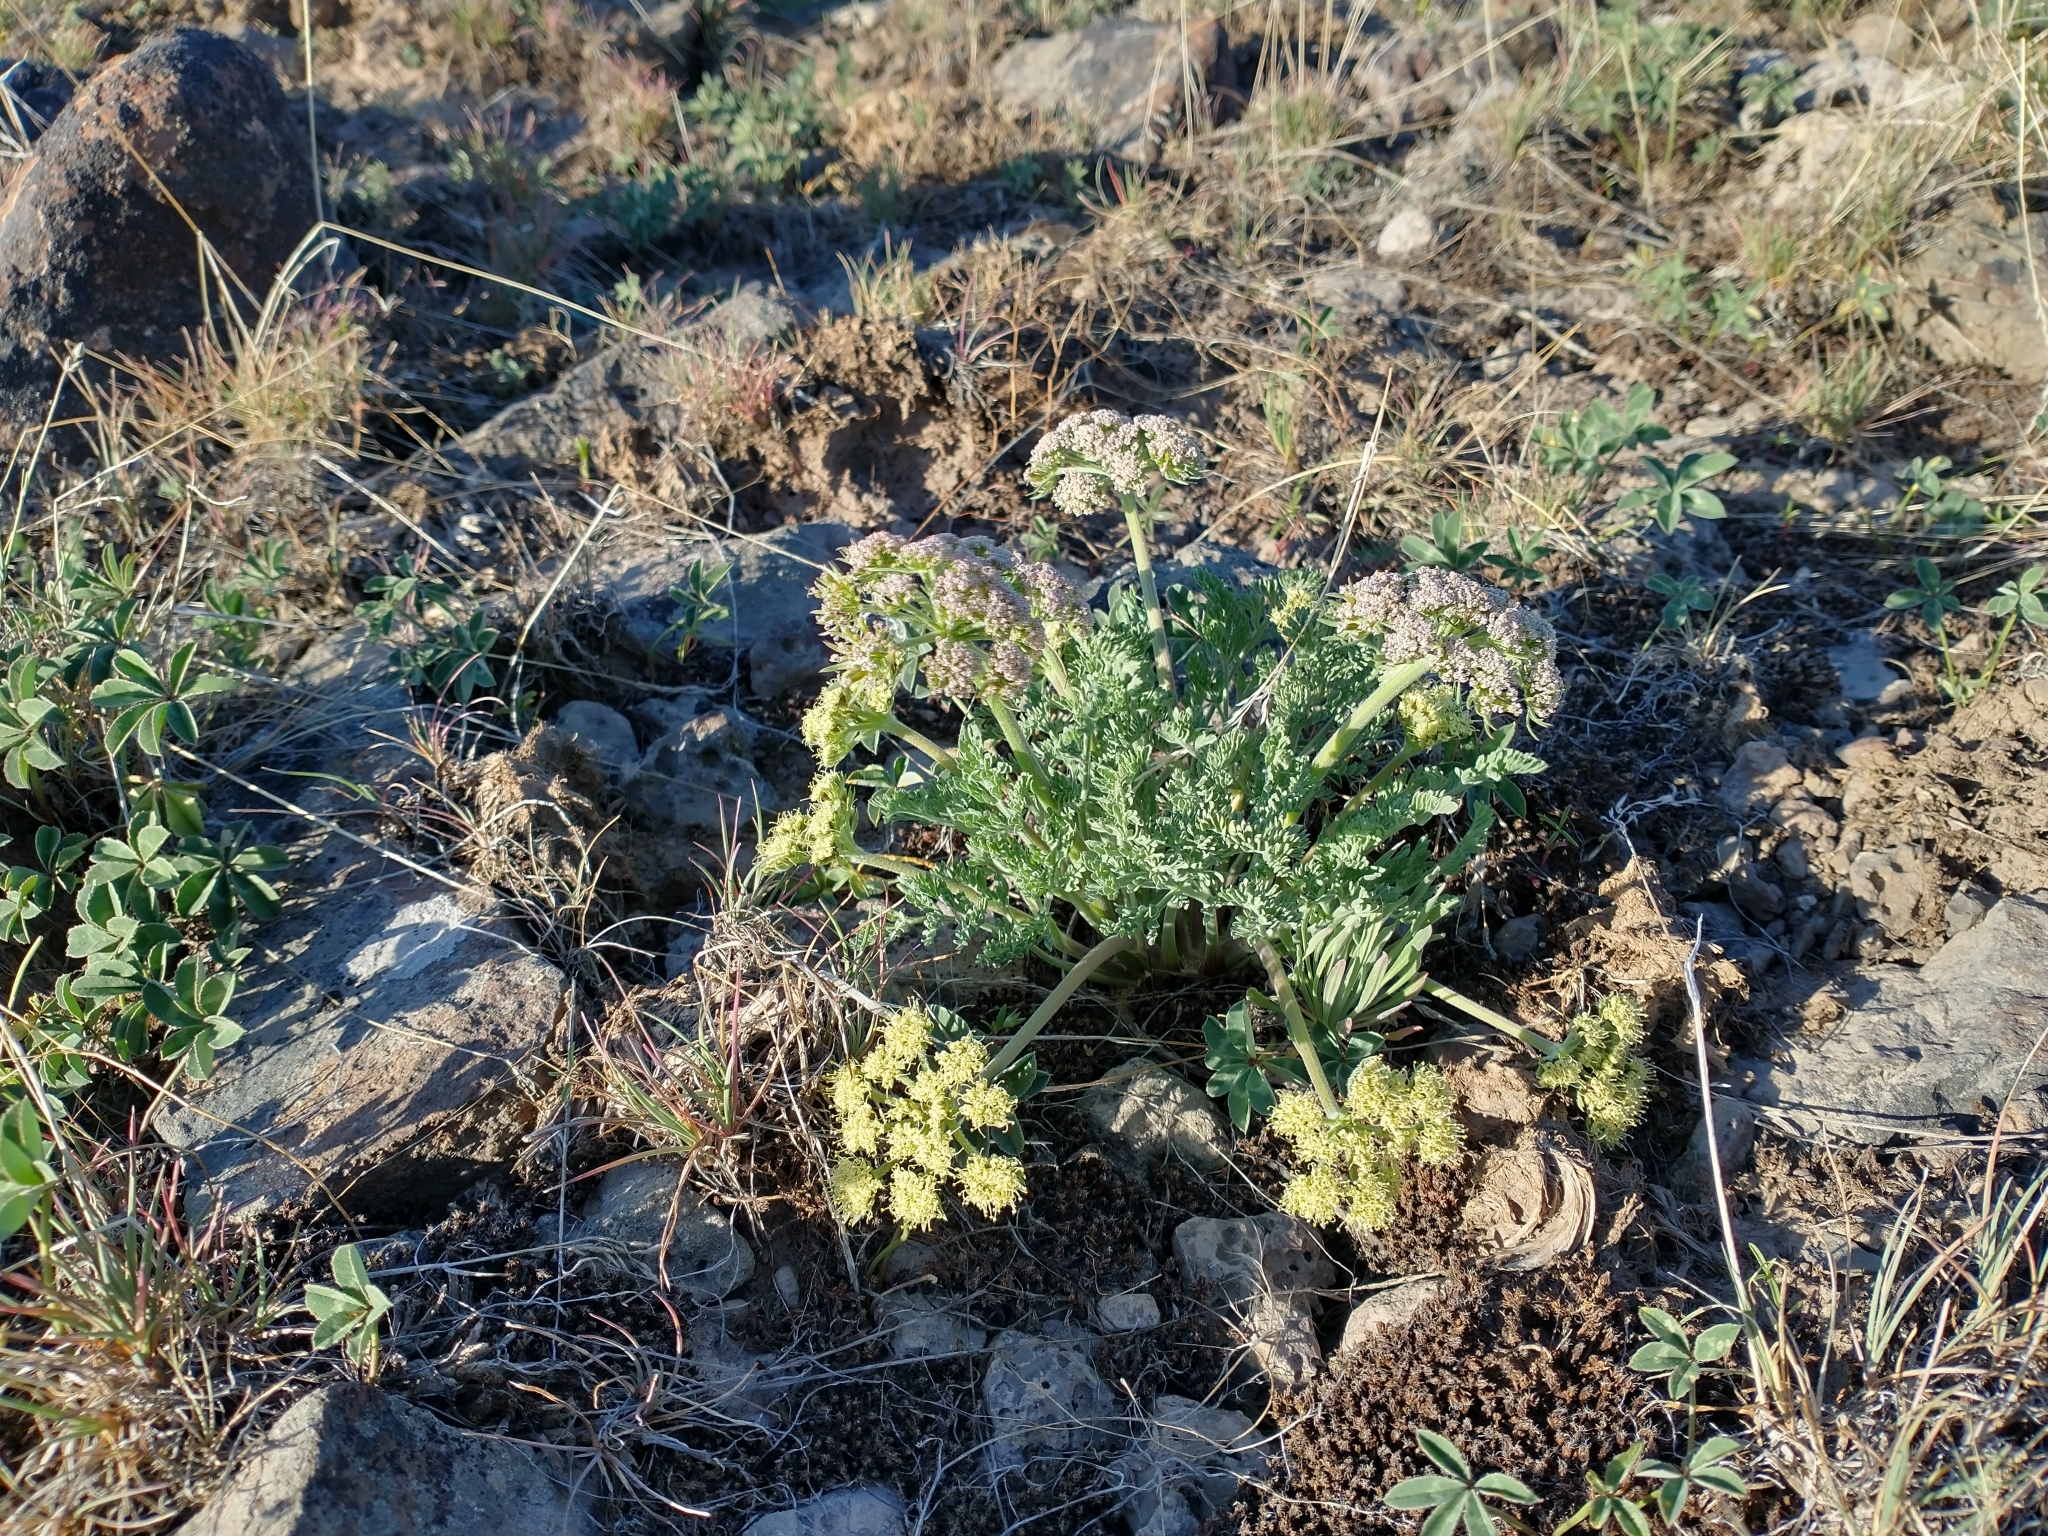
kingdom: Plantae
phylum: Tracheophyta
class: Magnoliopsida
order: Apiales
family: Apiaceae
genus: Lomatium
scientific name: Lomatium macrocarpum
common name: Big-seed biscuitroot
